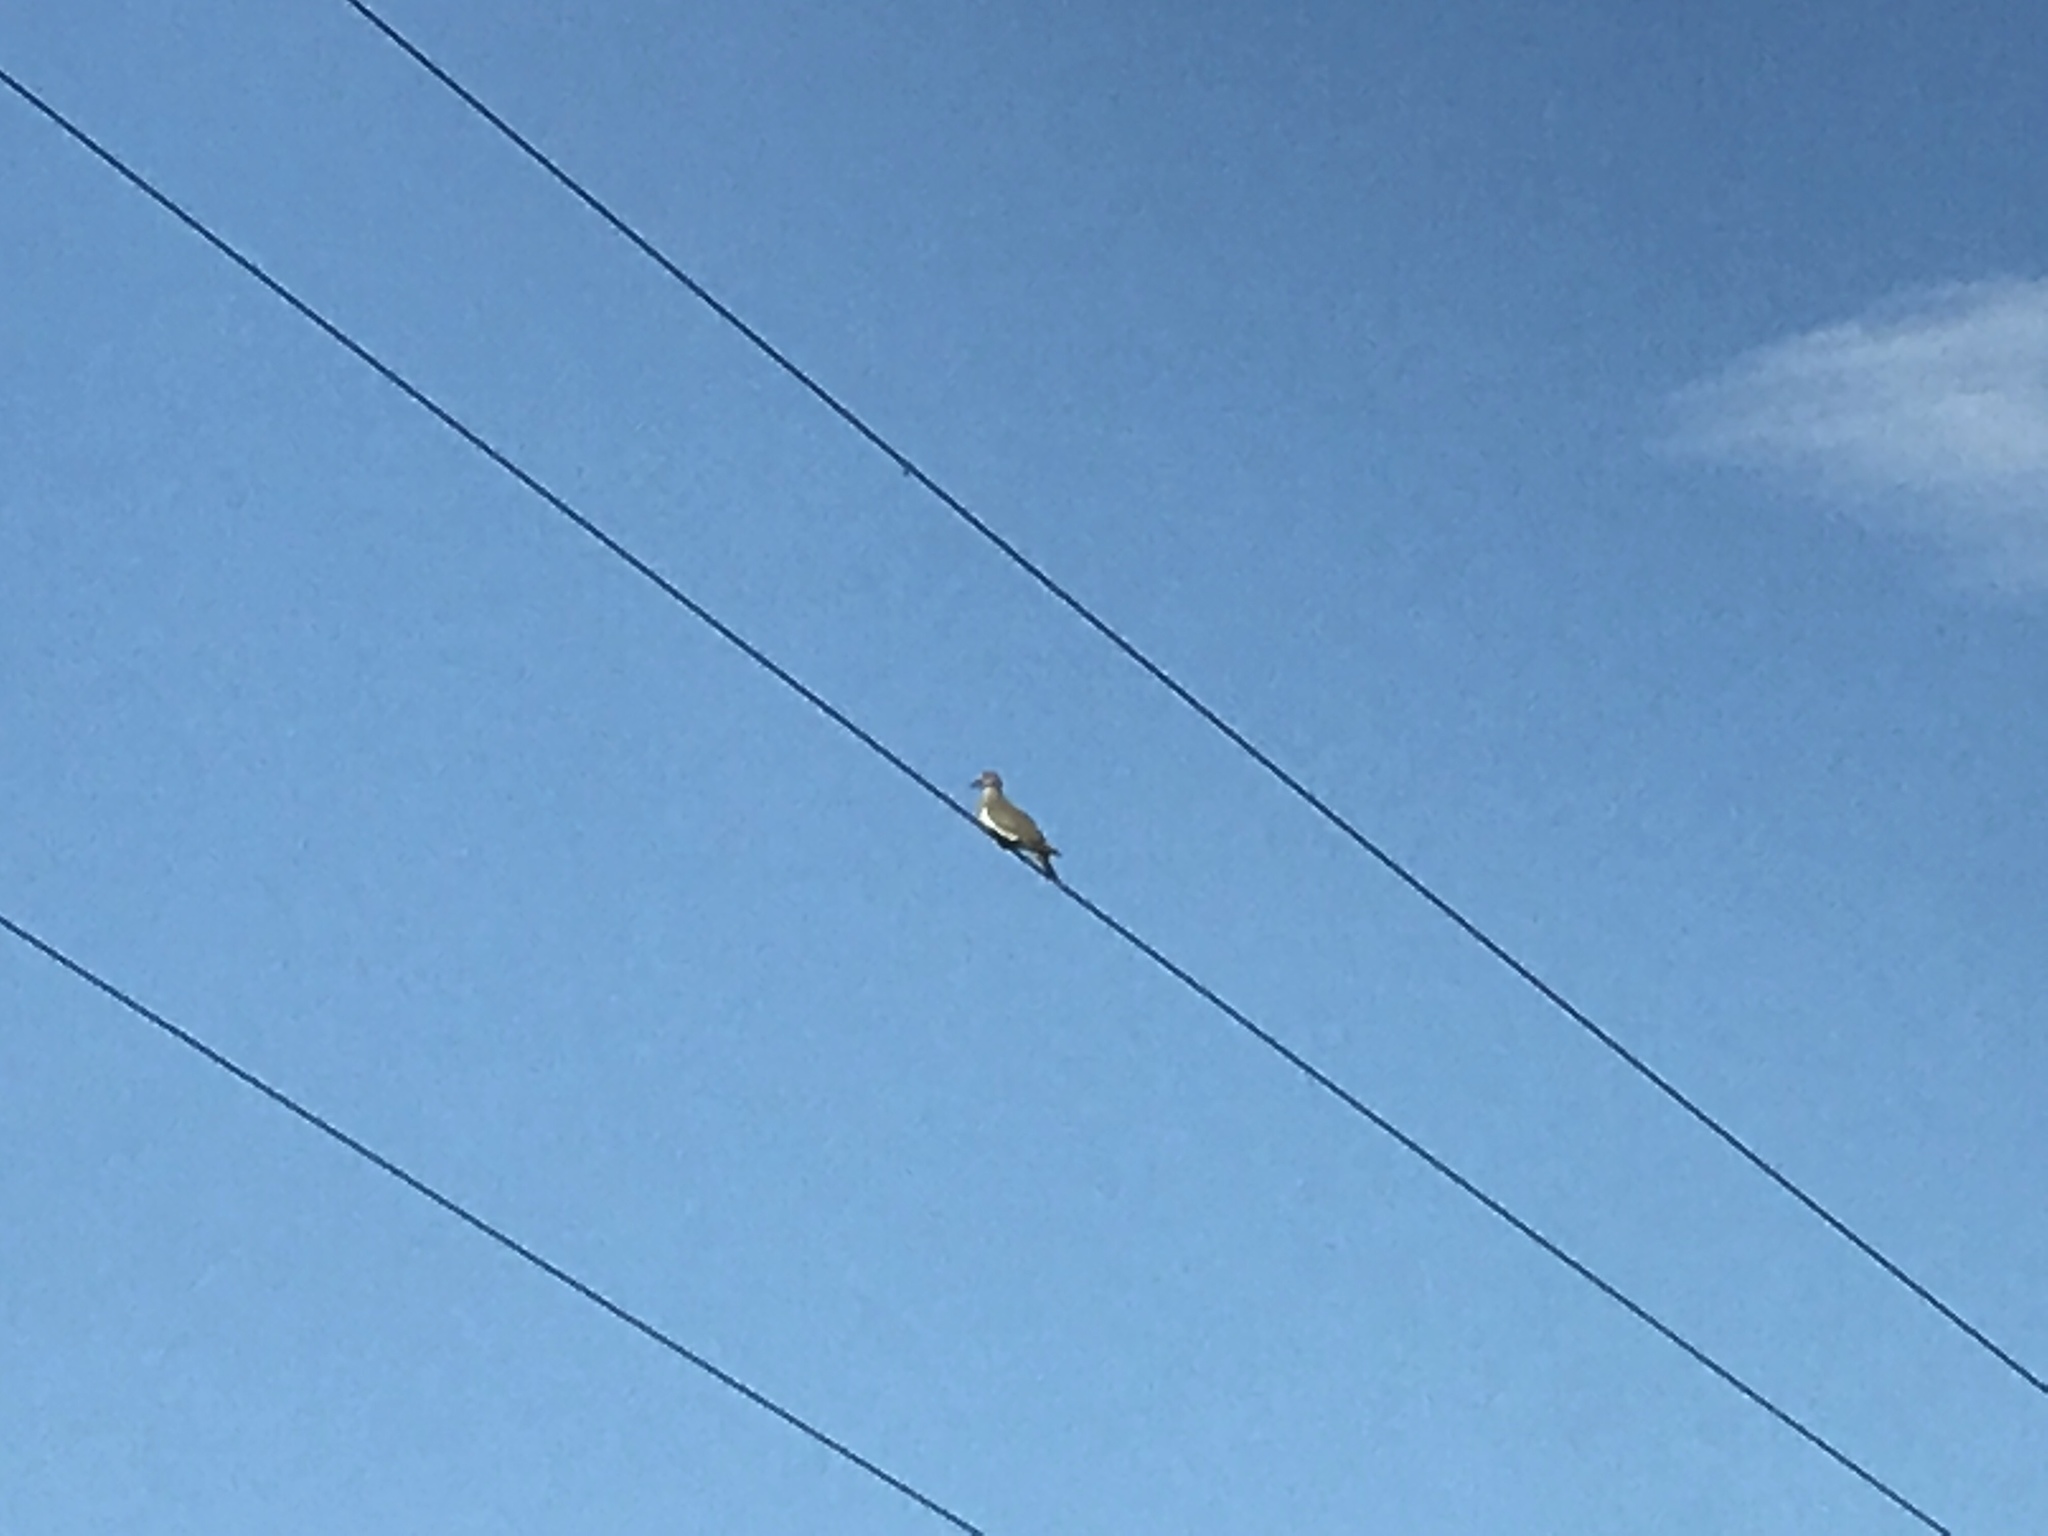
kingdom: Animalia
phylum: Chordata
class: Aves
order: Columbiformes
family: Columbidae
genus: Zenaida
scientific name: Zenaida asiatica
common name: White-winged dove
